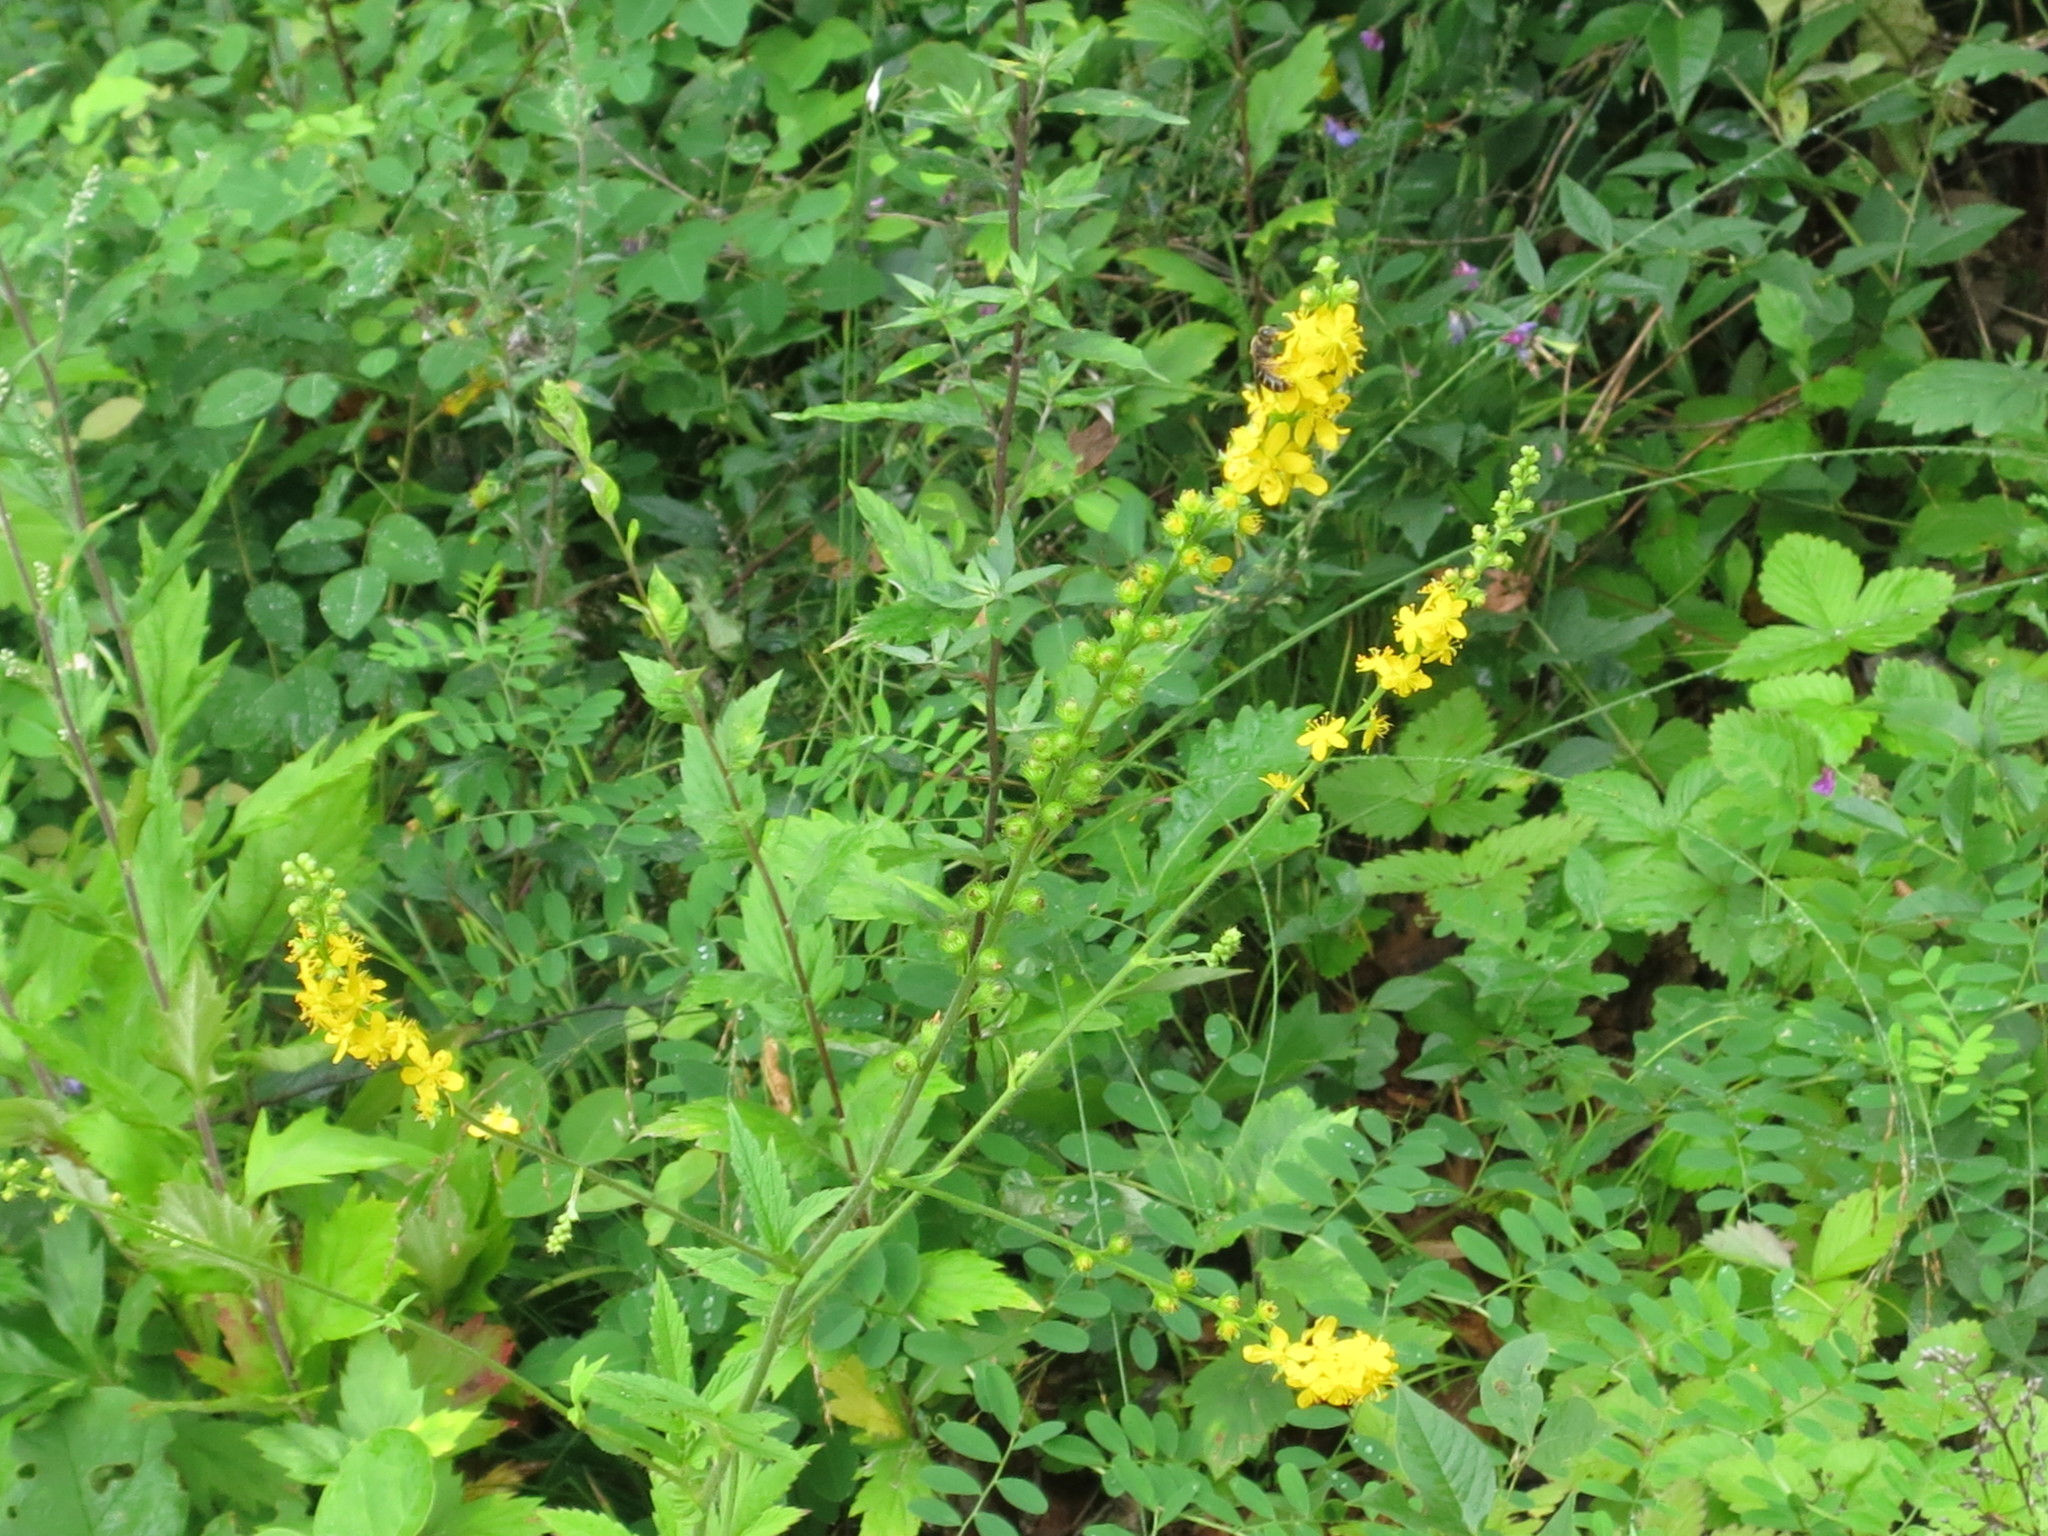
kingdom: Plantae
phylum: Tracheophyta
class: Magnoliopsida
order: Rosales
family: Rosaceae
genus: Agrimonia
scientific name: Agrimonia pilosa
